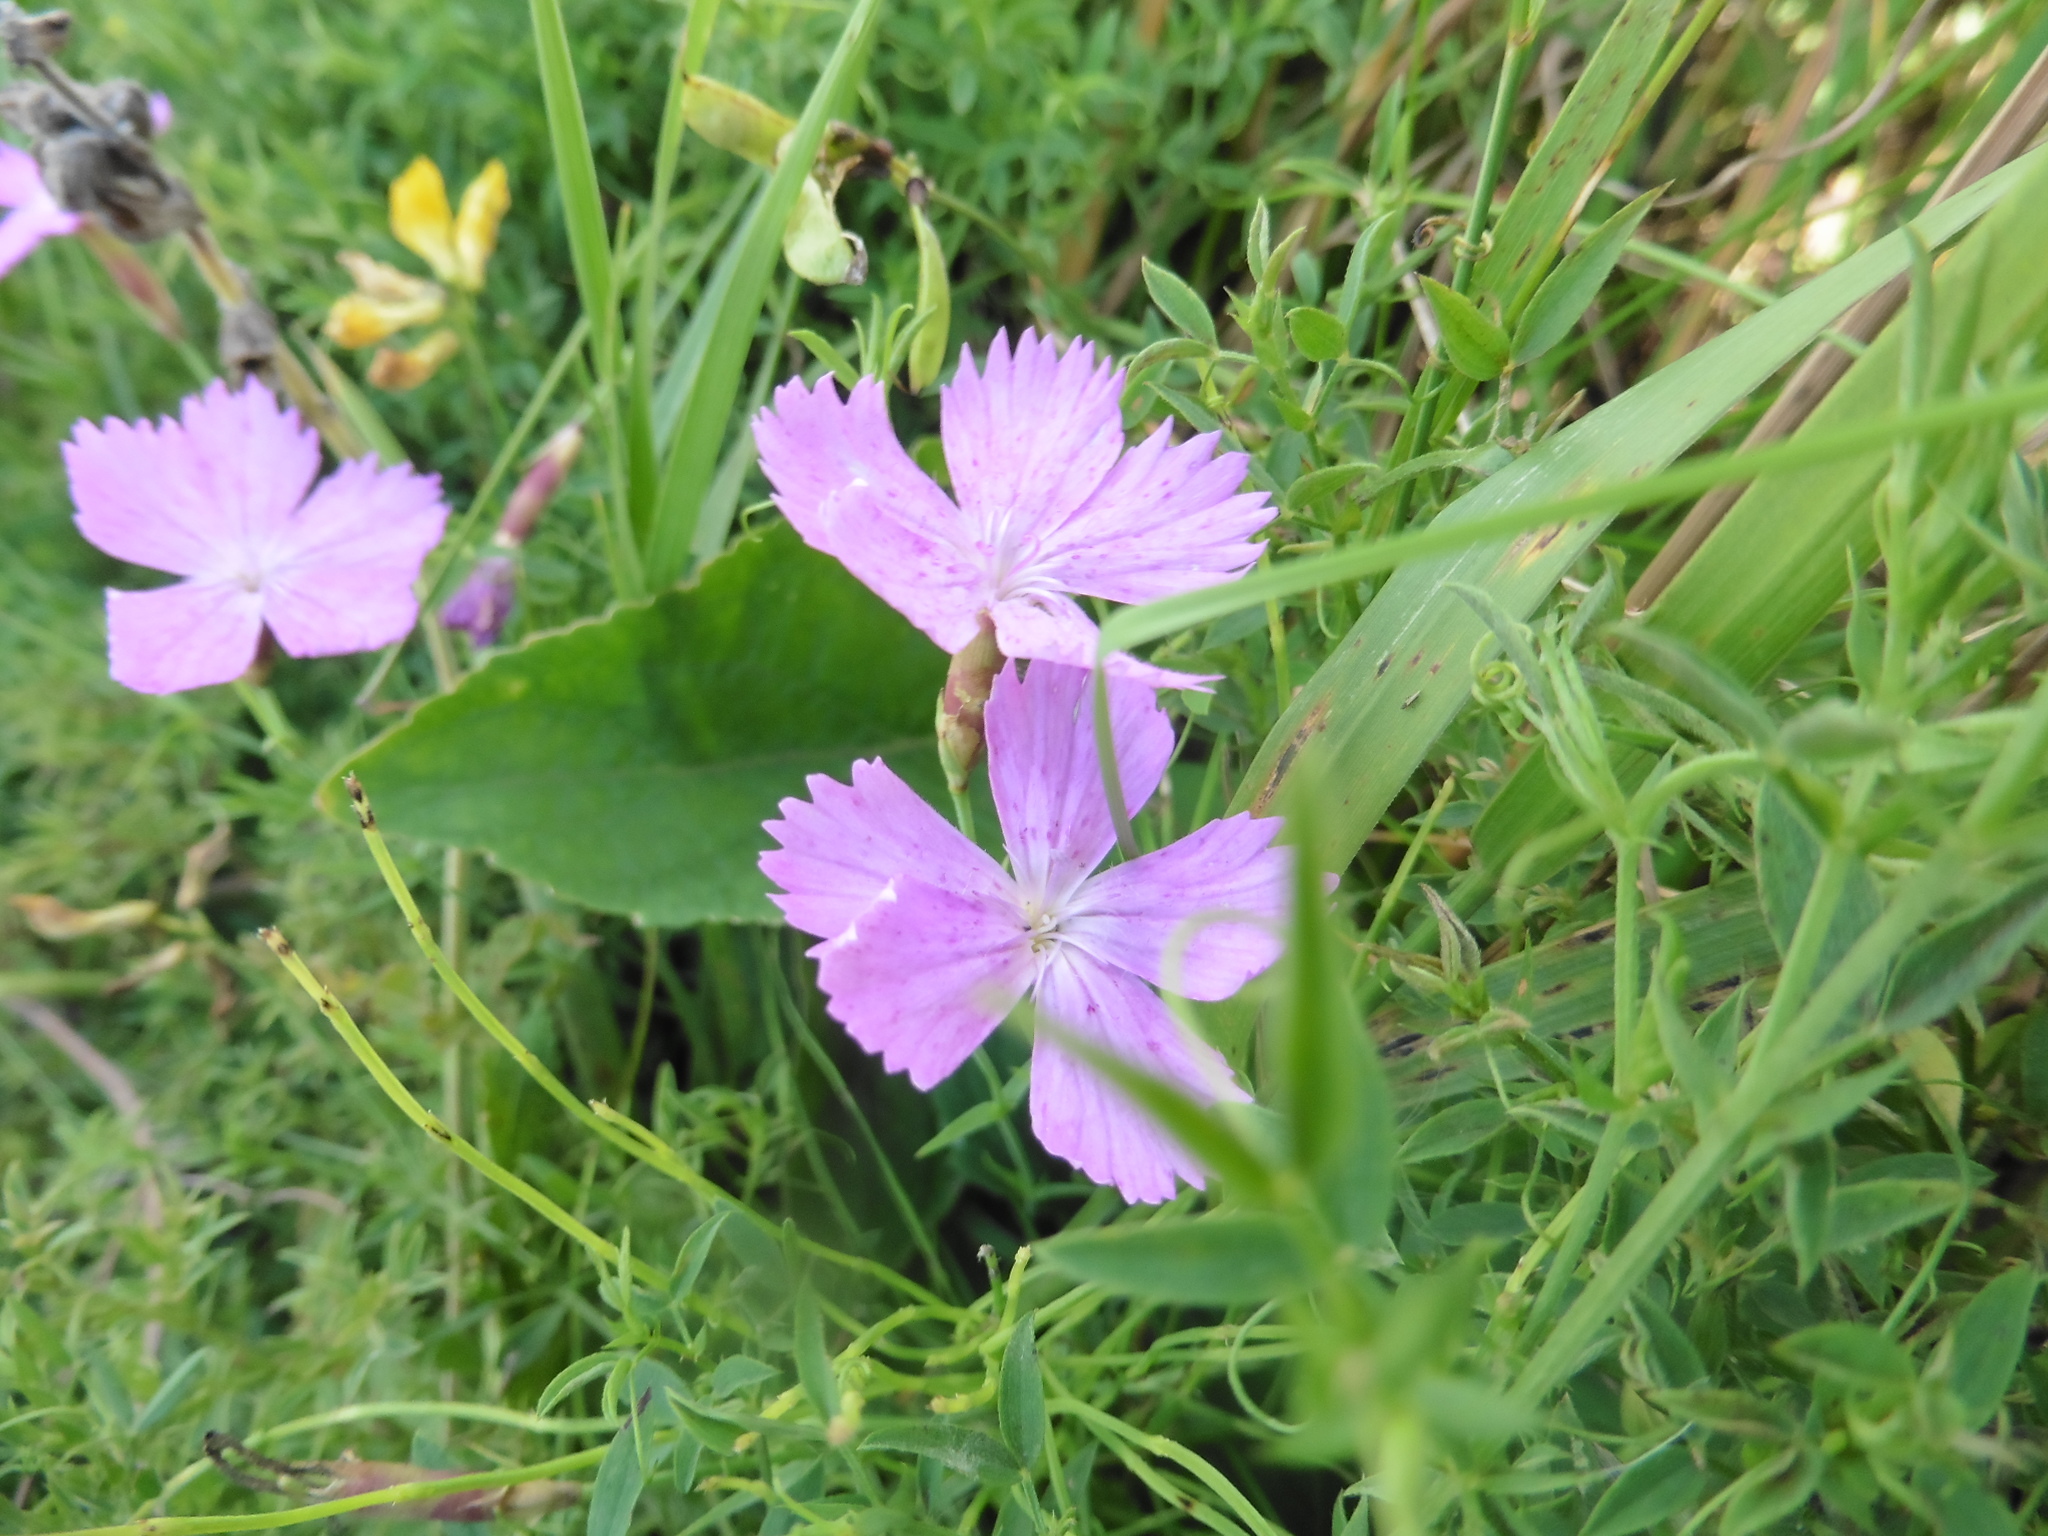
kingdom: Plantae
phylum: Tracheophyta
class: Magnoliopsida
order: Caryophyllales
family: Caryophyllaceae
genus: Dianthus
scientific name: Dianthus campestris
